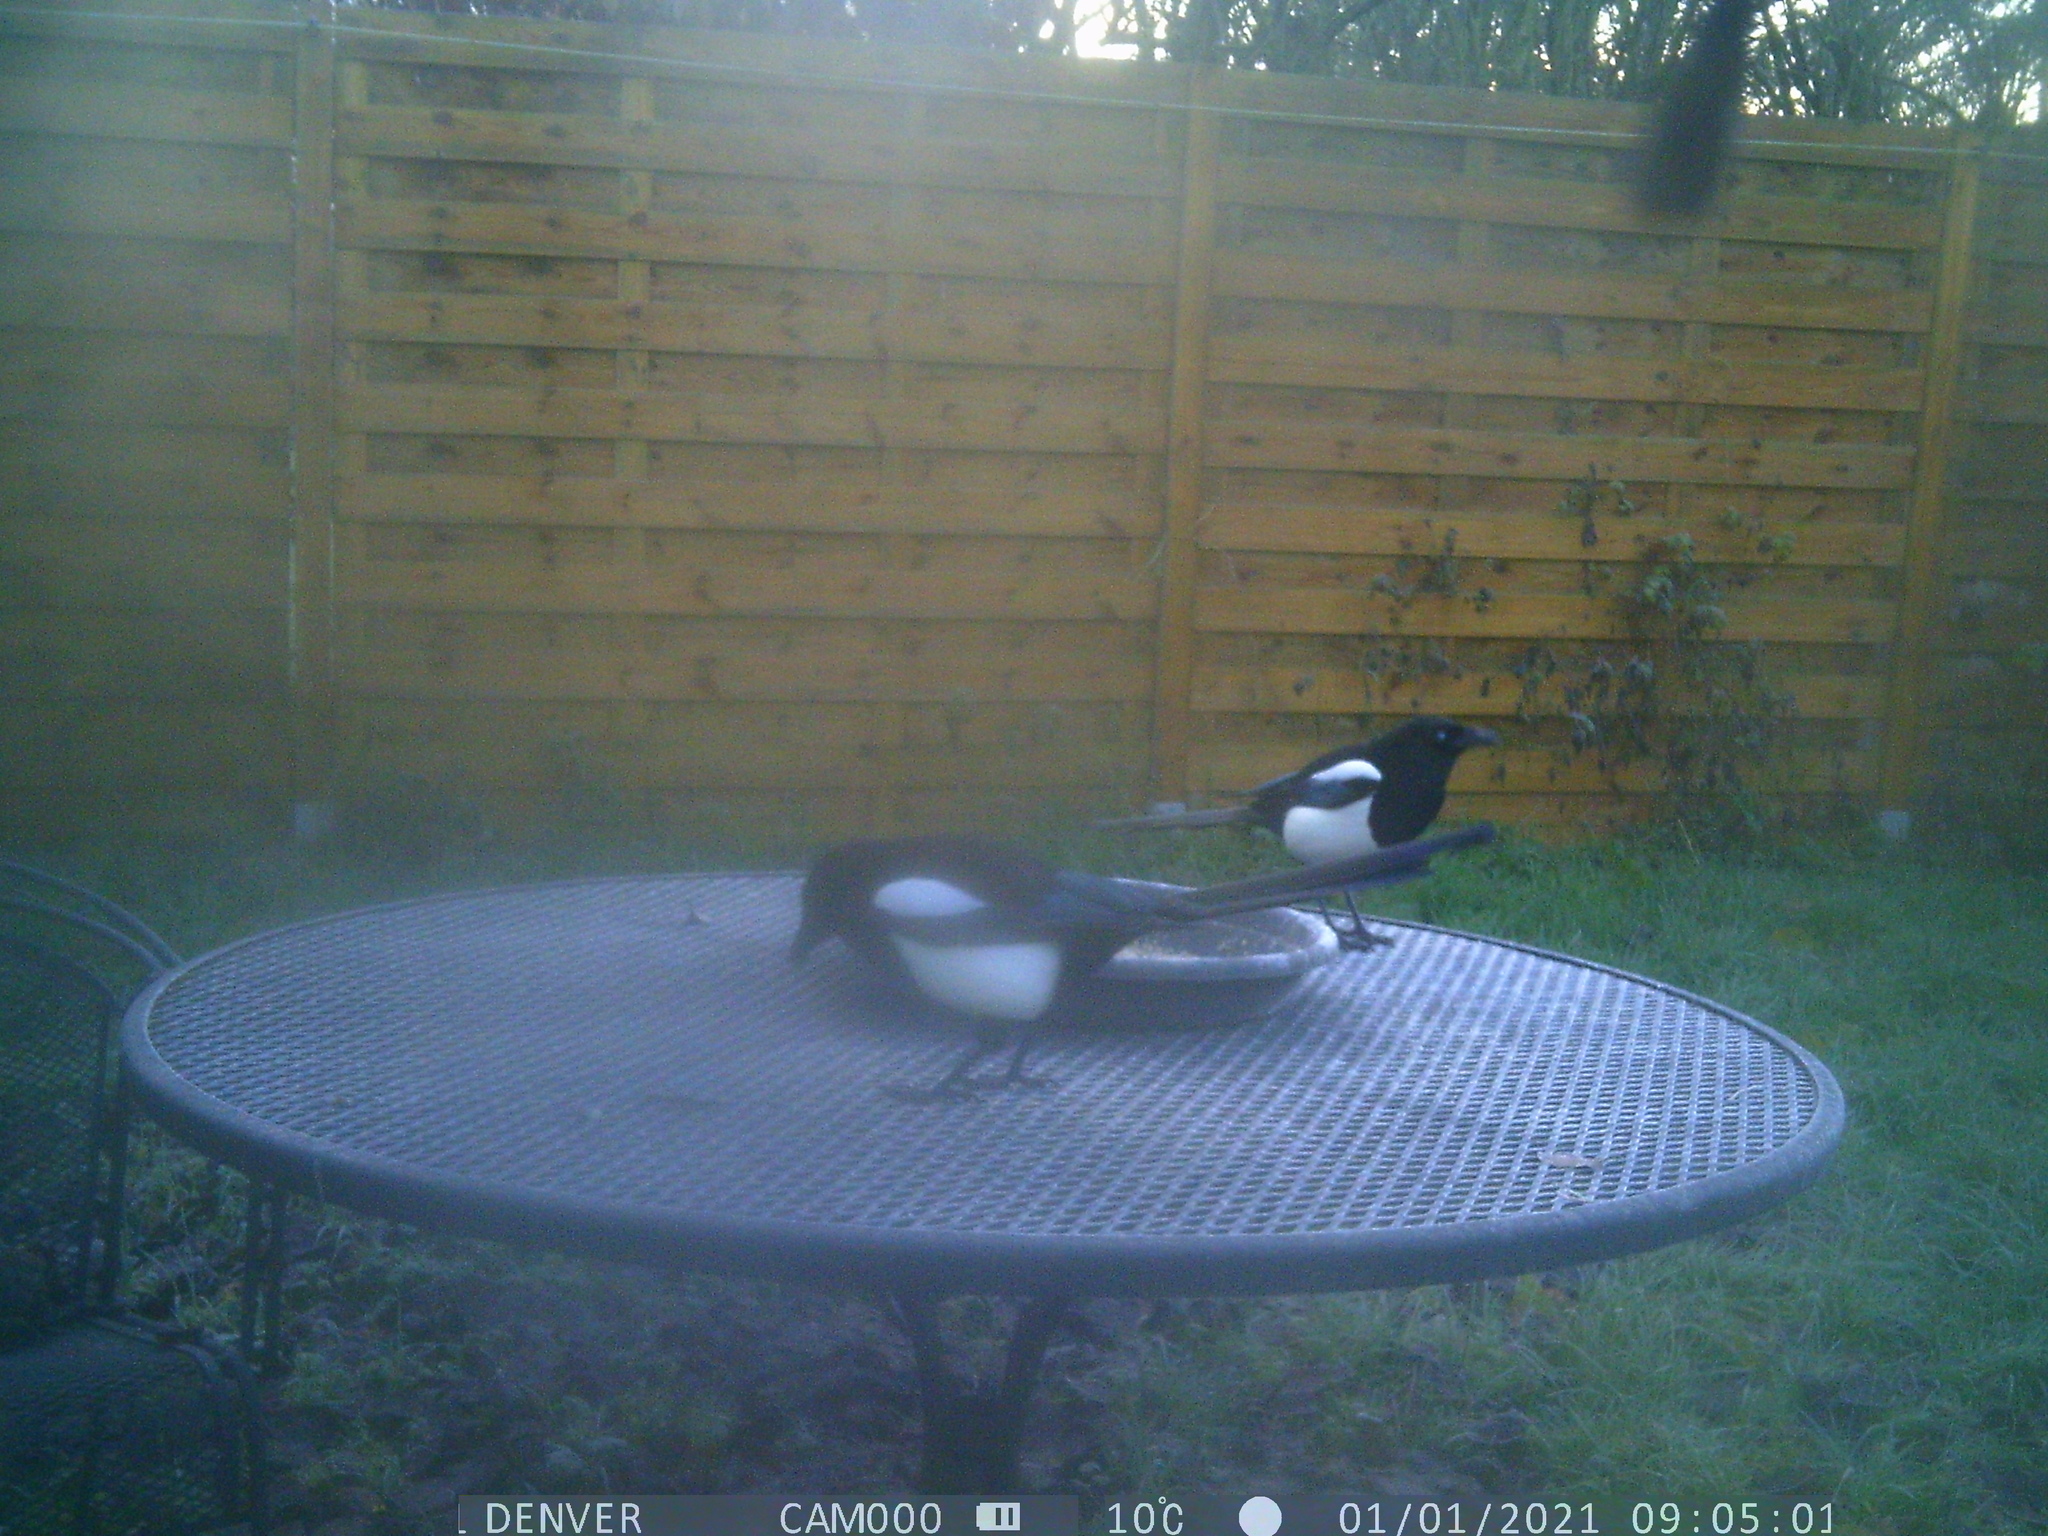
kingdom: Animalia
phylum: Chordata
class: Aves
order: Passeriformes
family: Corvidae
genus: Pica
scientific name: Pica pica
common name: Eurasian magpie
